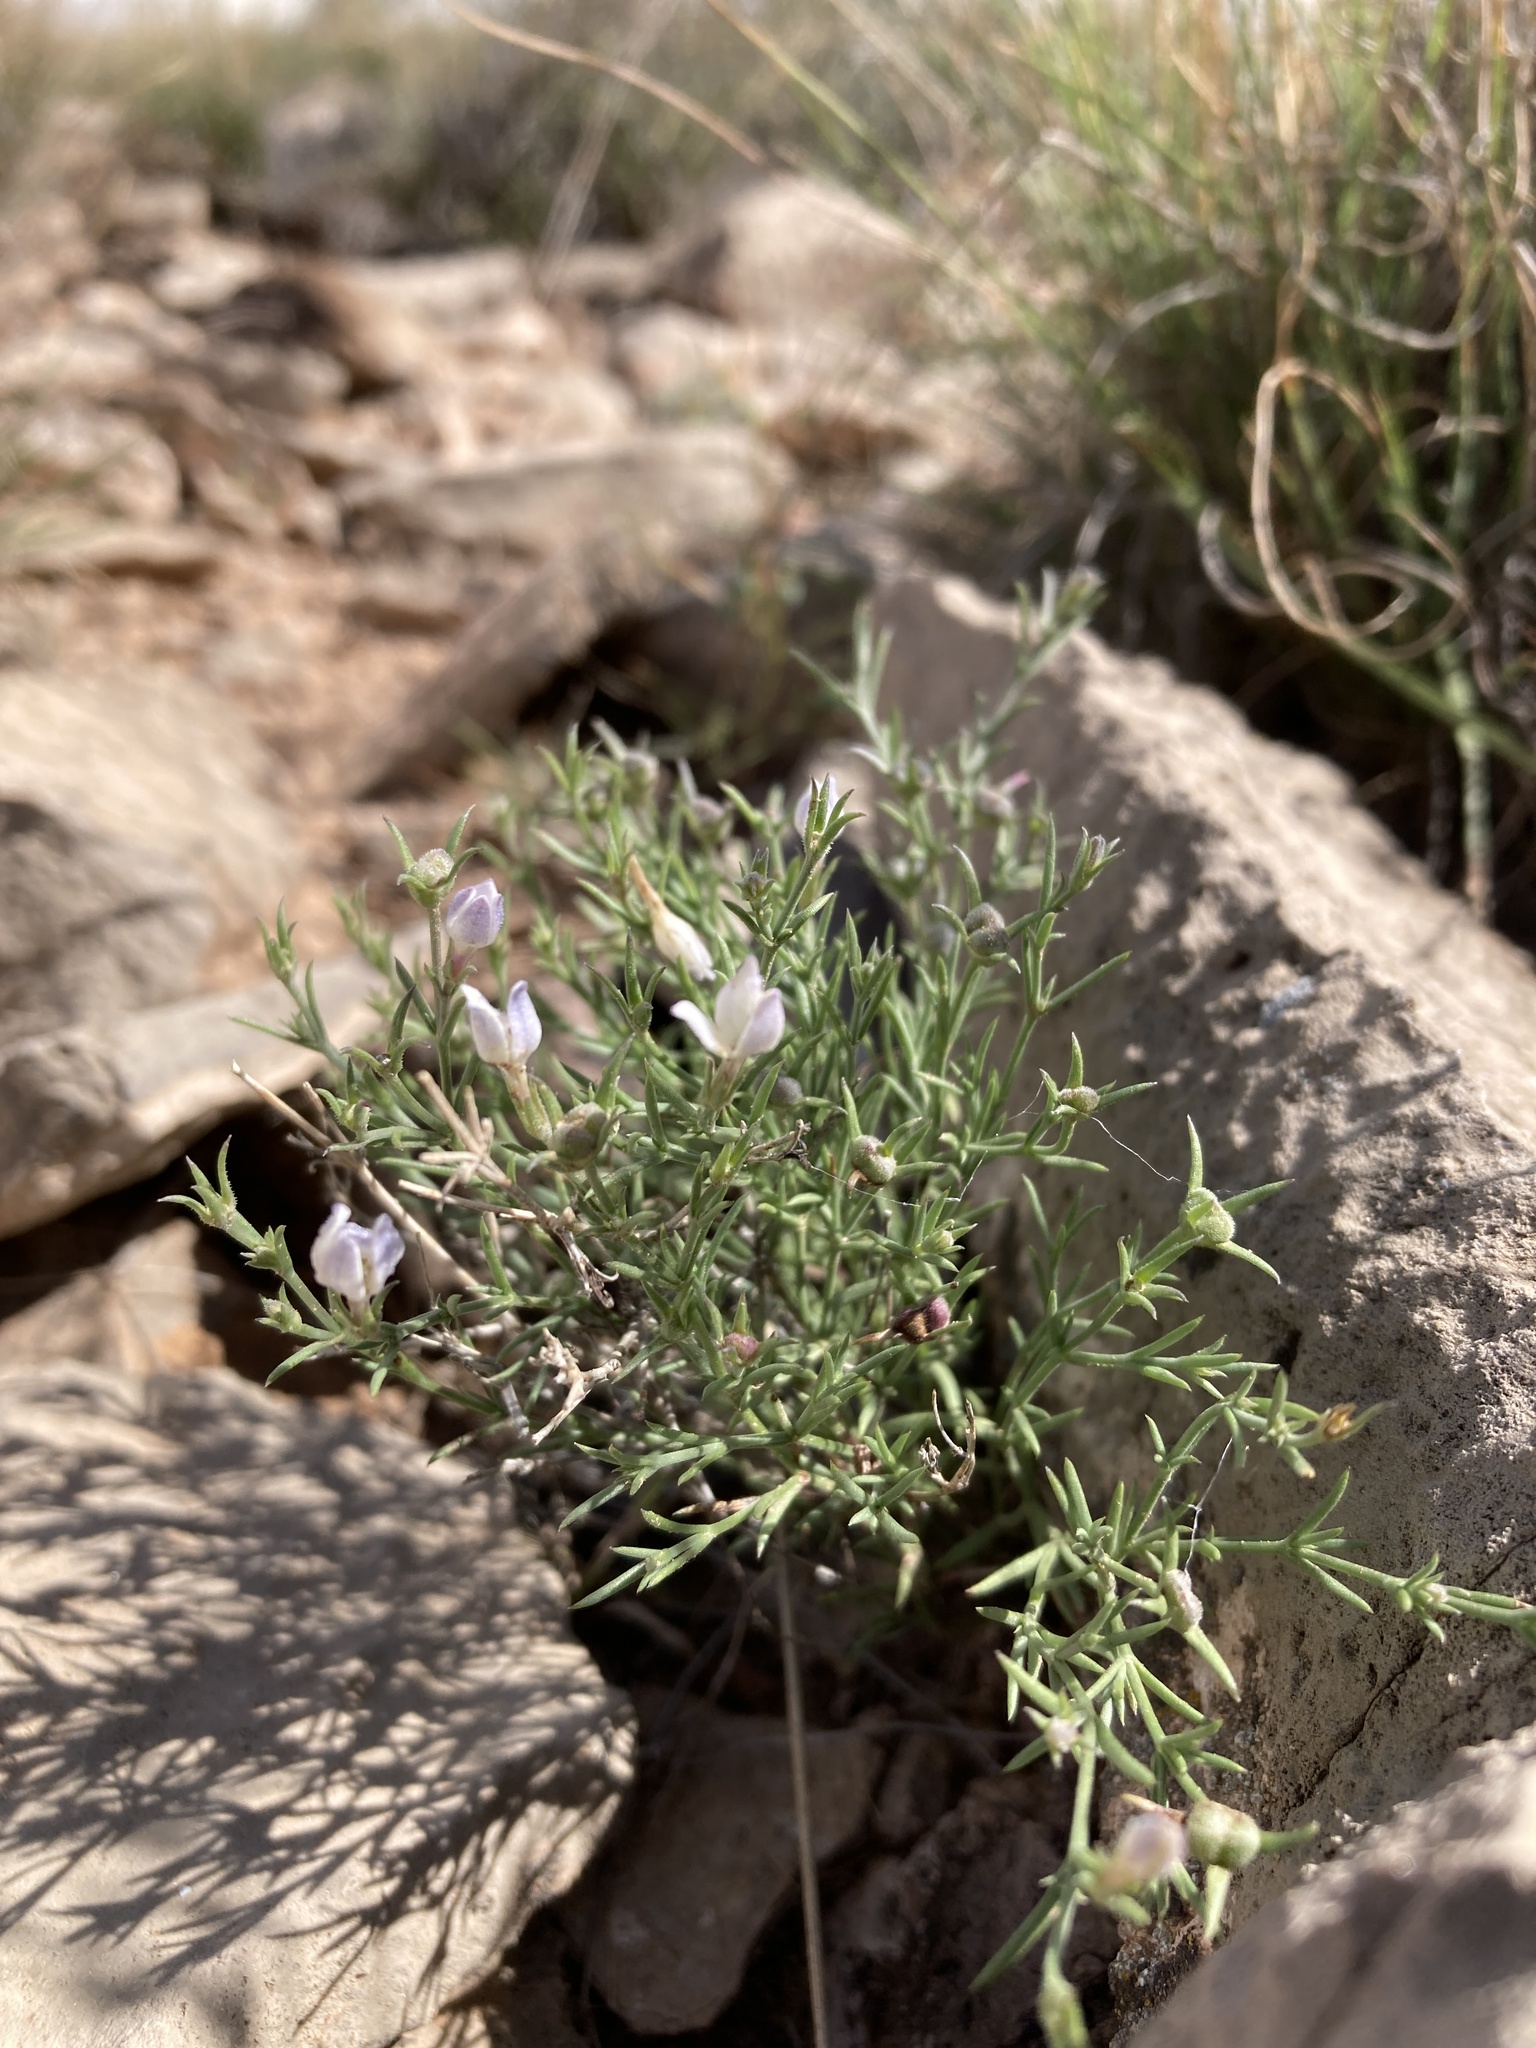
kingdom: Plantae
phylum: Tracheophyta
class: Magnoliopsida
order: Gentianales
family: Rubiaceae
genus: Houstonia
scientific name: Houstonia acerosa
